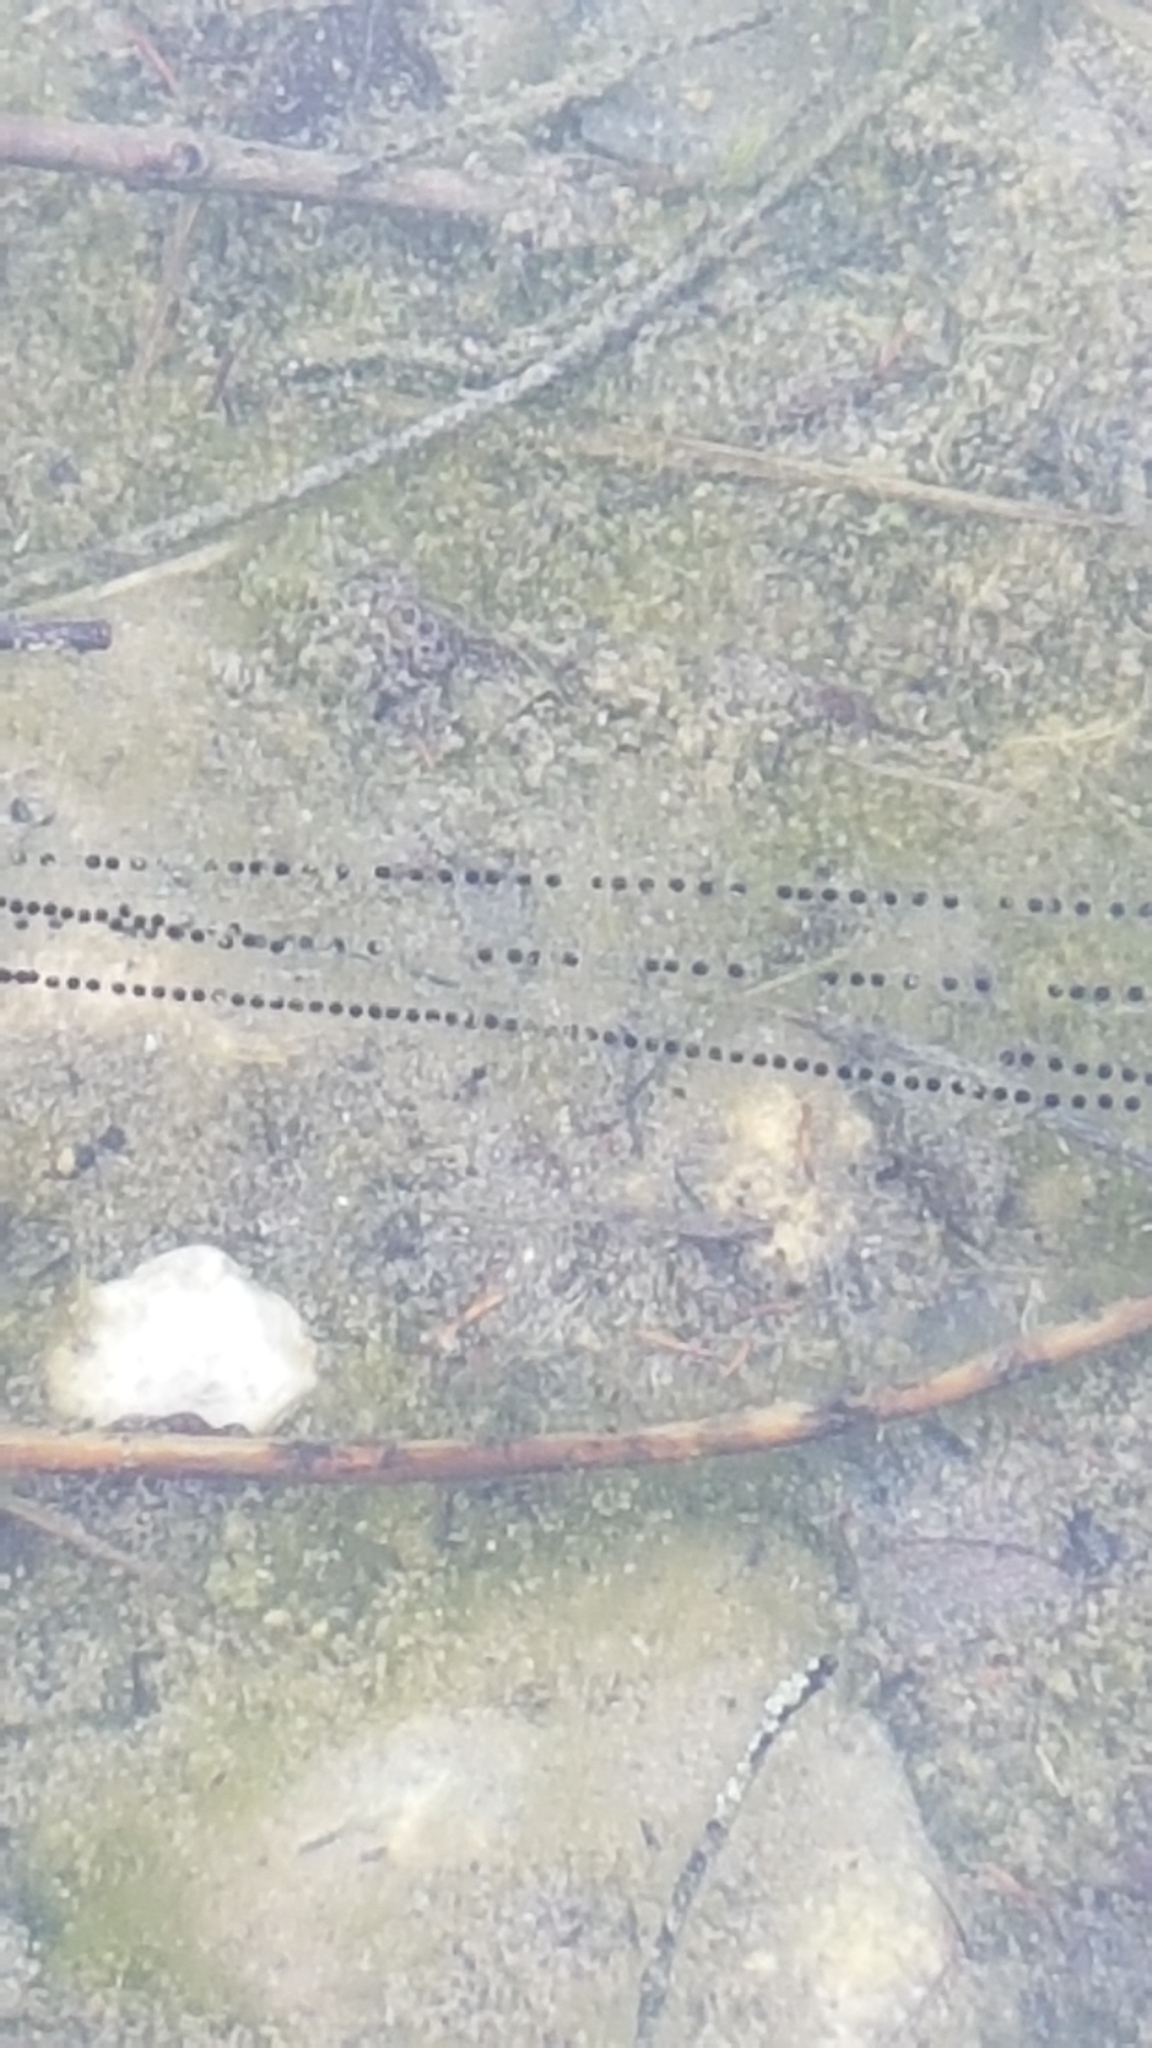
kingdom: Animalia
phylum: Chordata
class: Amphibia
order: Anura
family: Bufonidae
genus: Bufo
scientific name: Bufo bufo
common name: Common toad
